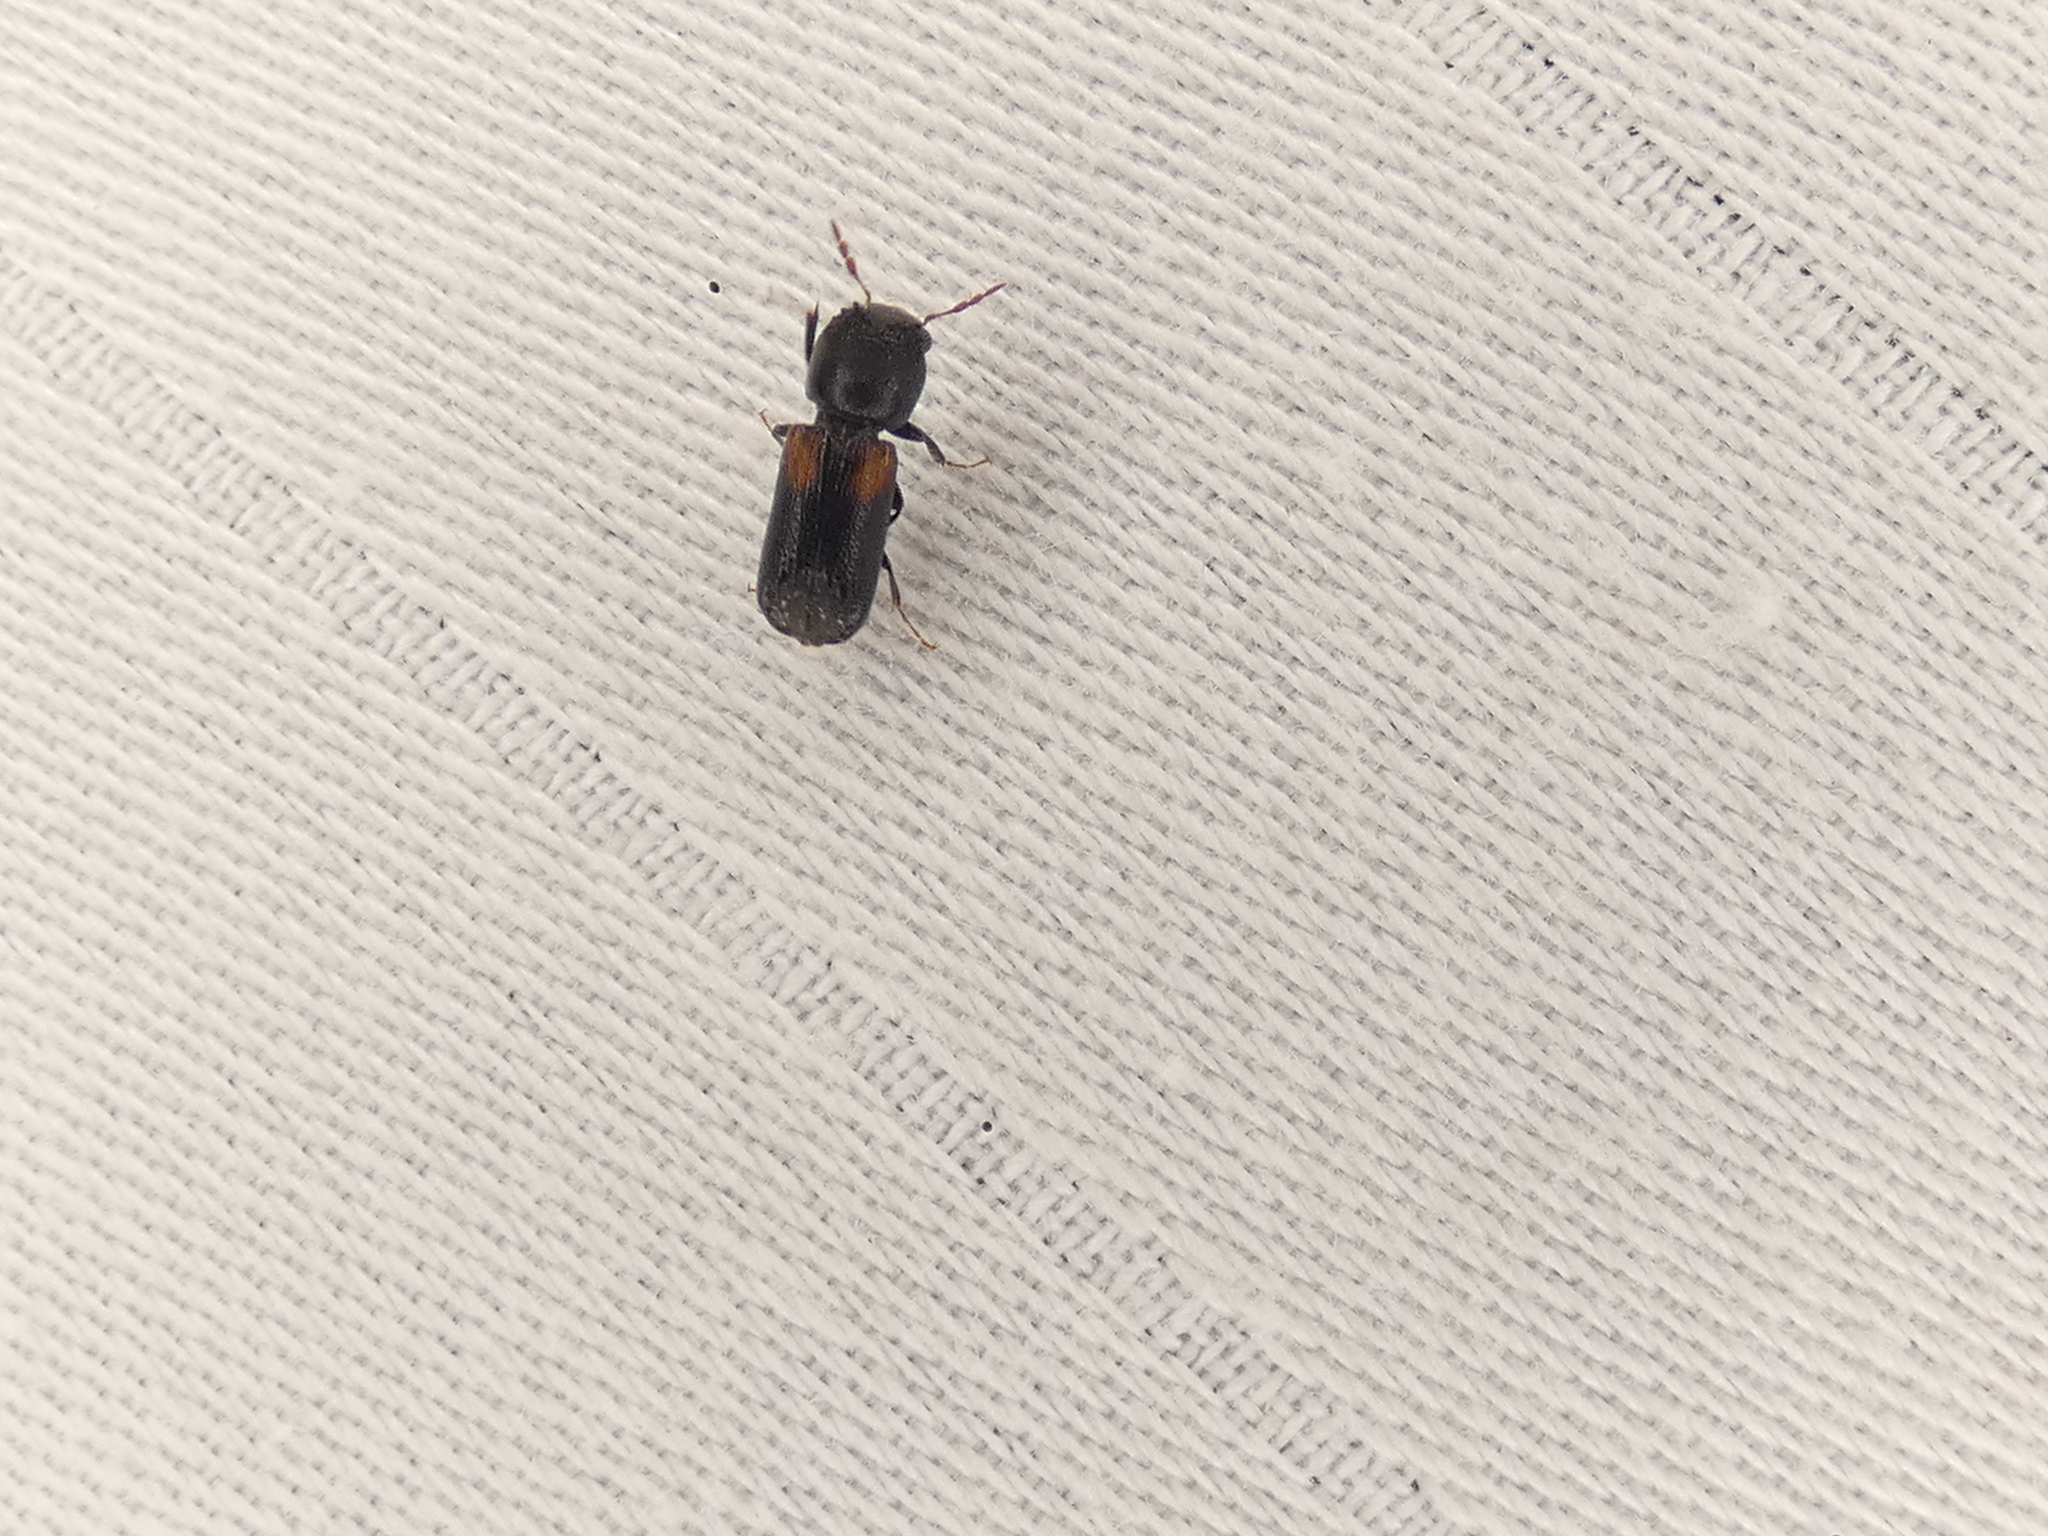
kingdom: Animalia
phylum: Arthropoda
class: Insecta
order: Coleoptera
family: Bostrichidae
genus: Xylobiops
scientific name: Xylobiops basilaris
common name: Red-shouldered bostrichid
